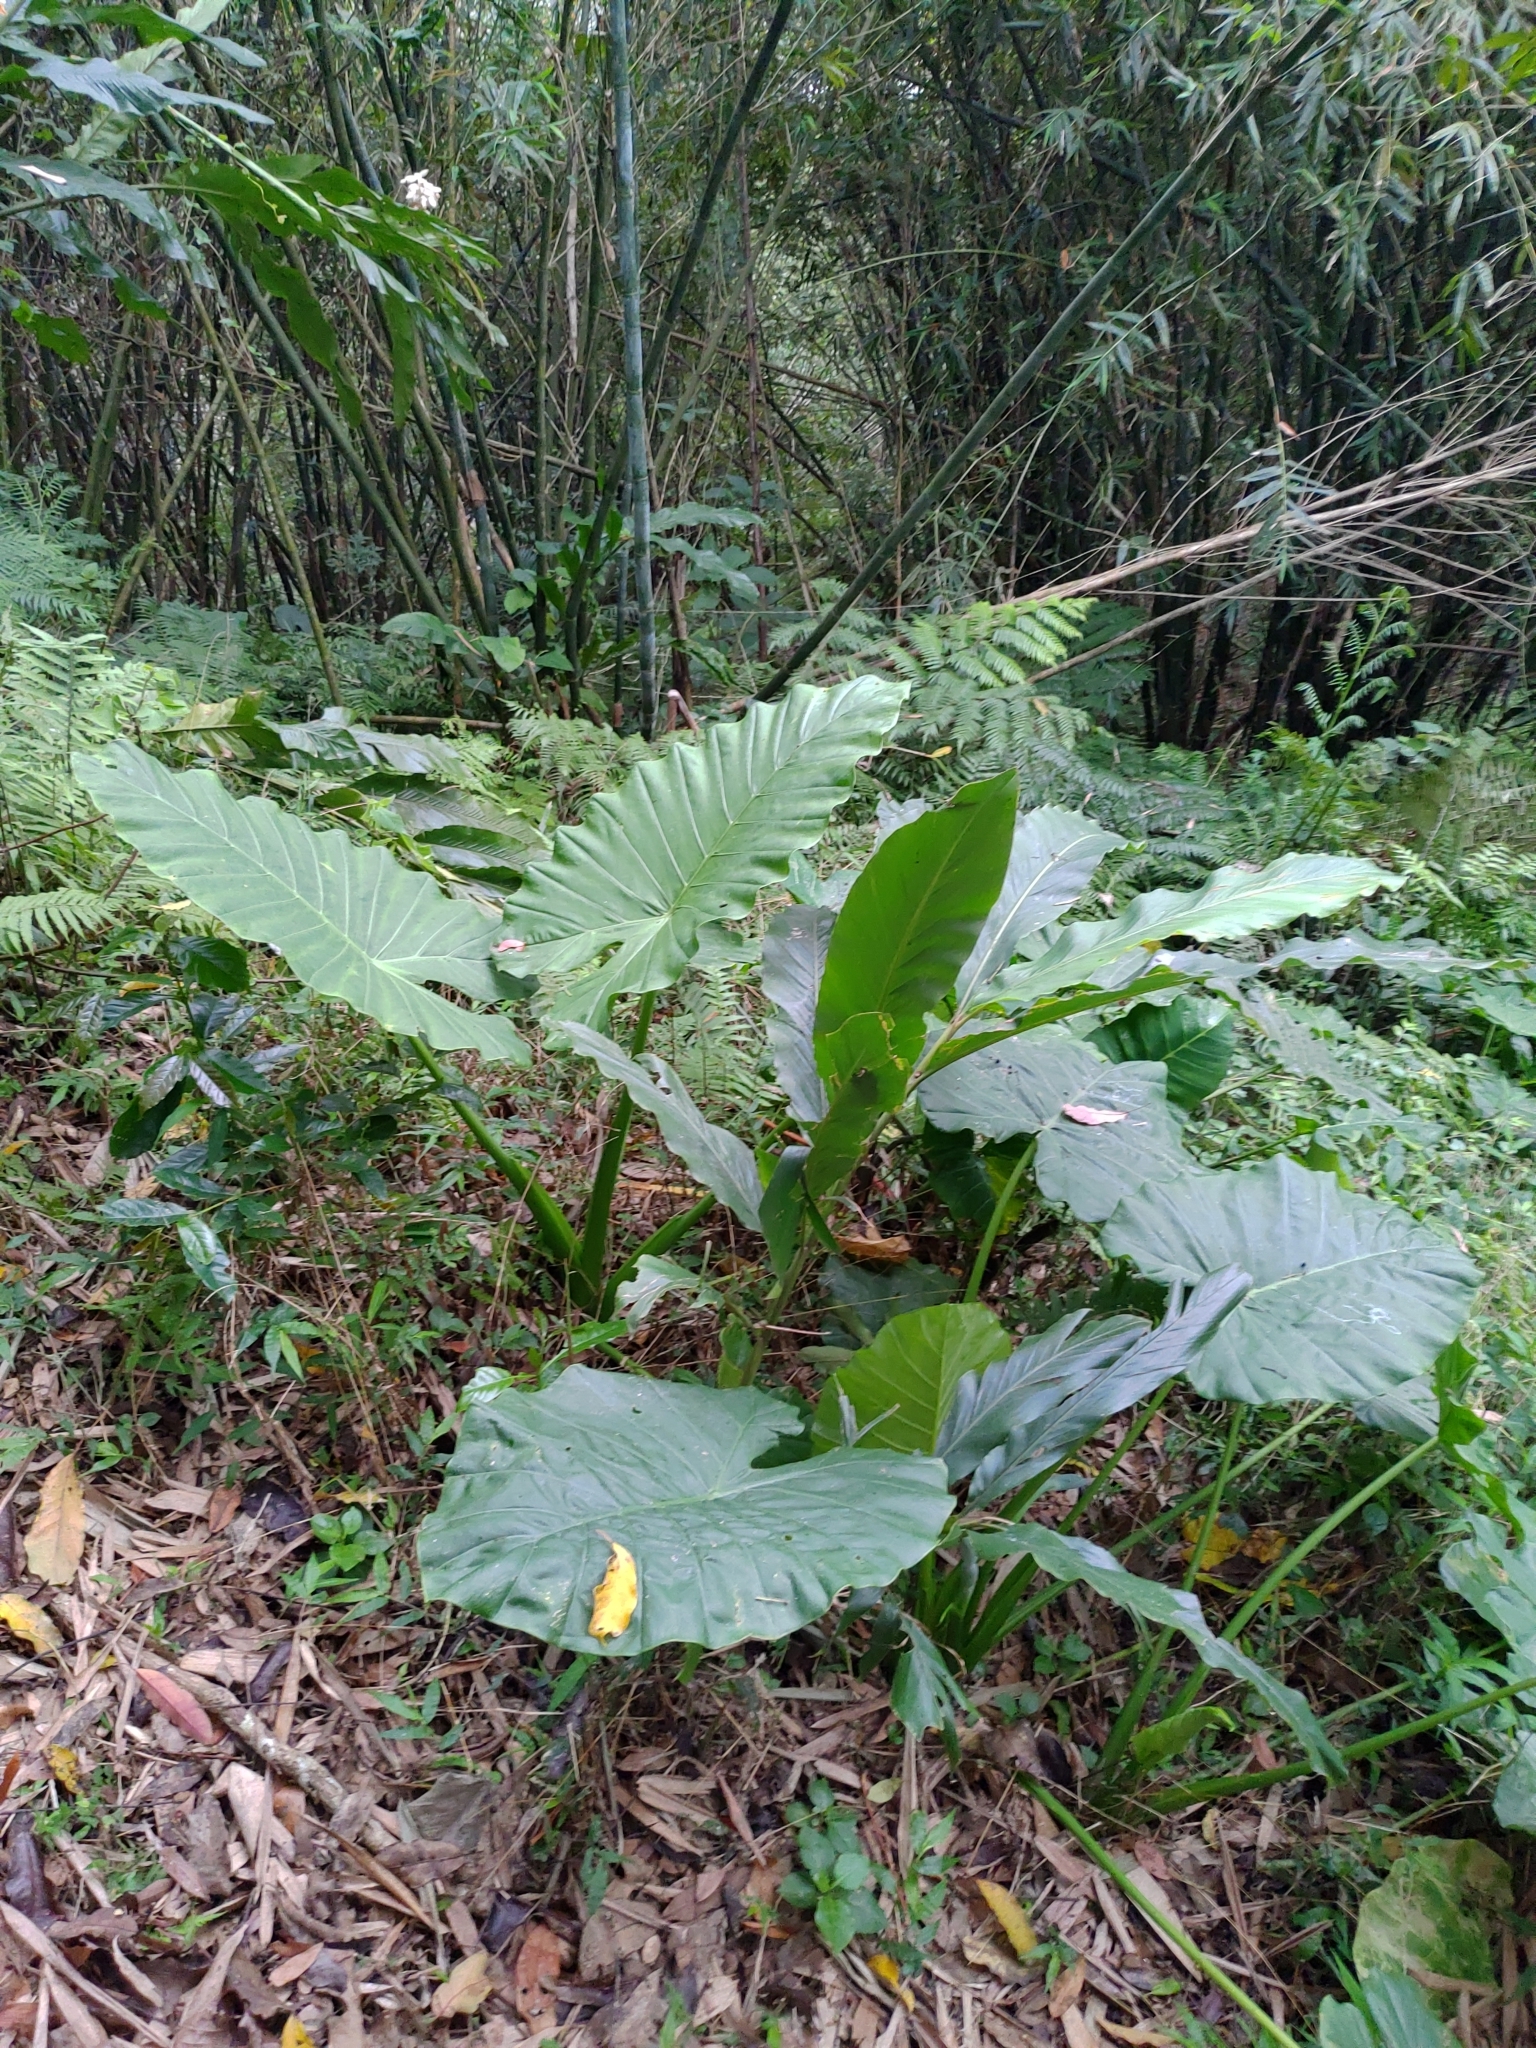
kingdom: Plantae
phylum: Tracheophyta
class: Liliopsida
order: Alismatales
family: Araceae
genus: Alocasia
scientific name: Alocasia odora
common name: Asian taro
